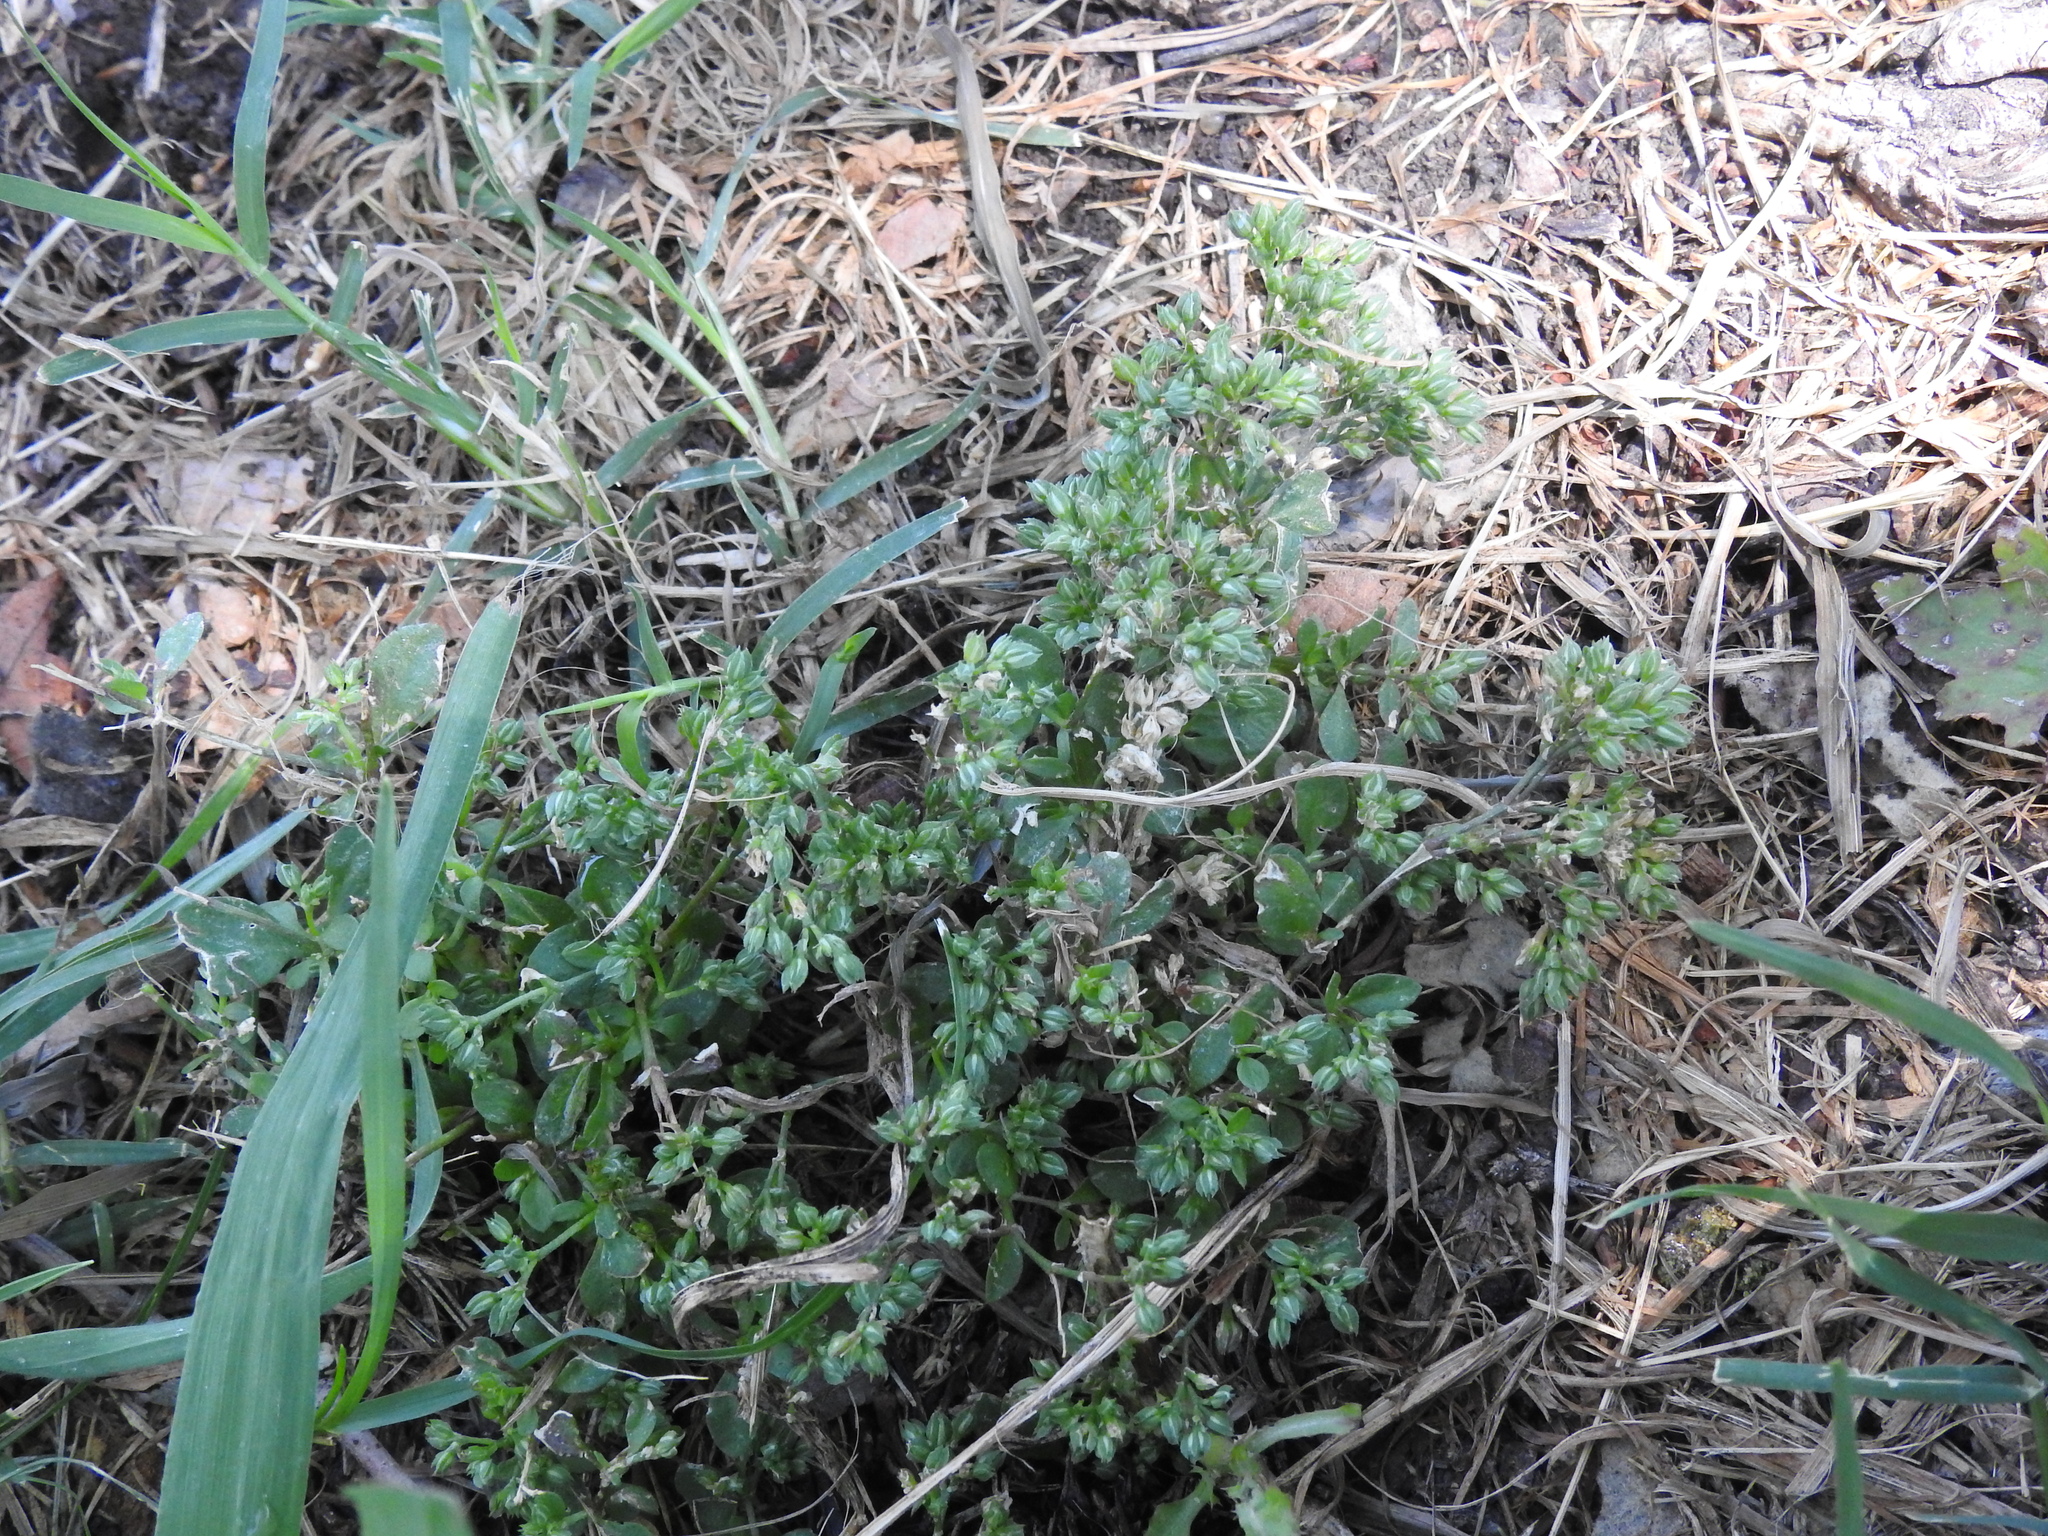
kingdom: Plantae
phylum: Tracheophyta
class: Magnoliopsida
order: Caryophyllales
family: Caryophyllaceae
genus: Polycarpon
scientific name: Polycarpon tetraphyllum
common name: Four-leaved all-seed
